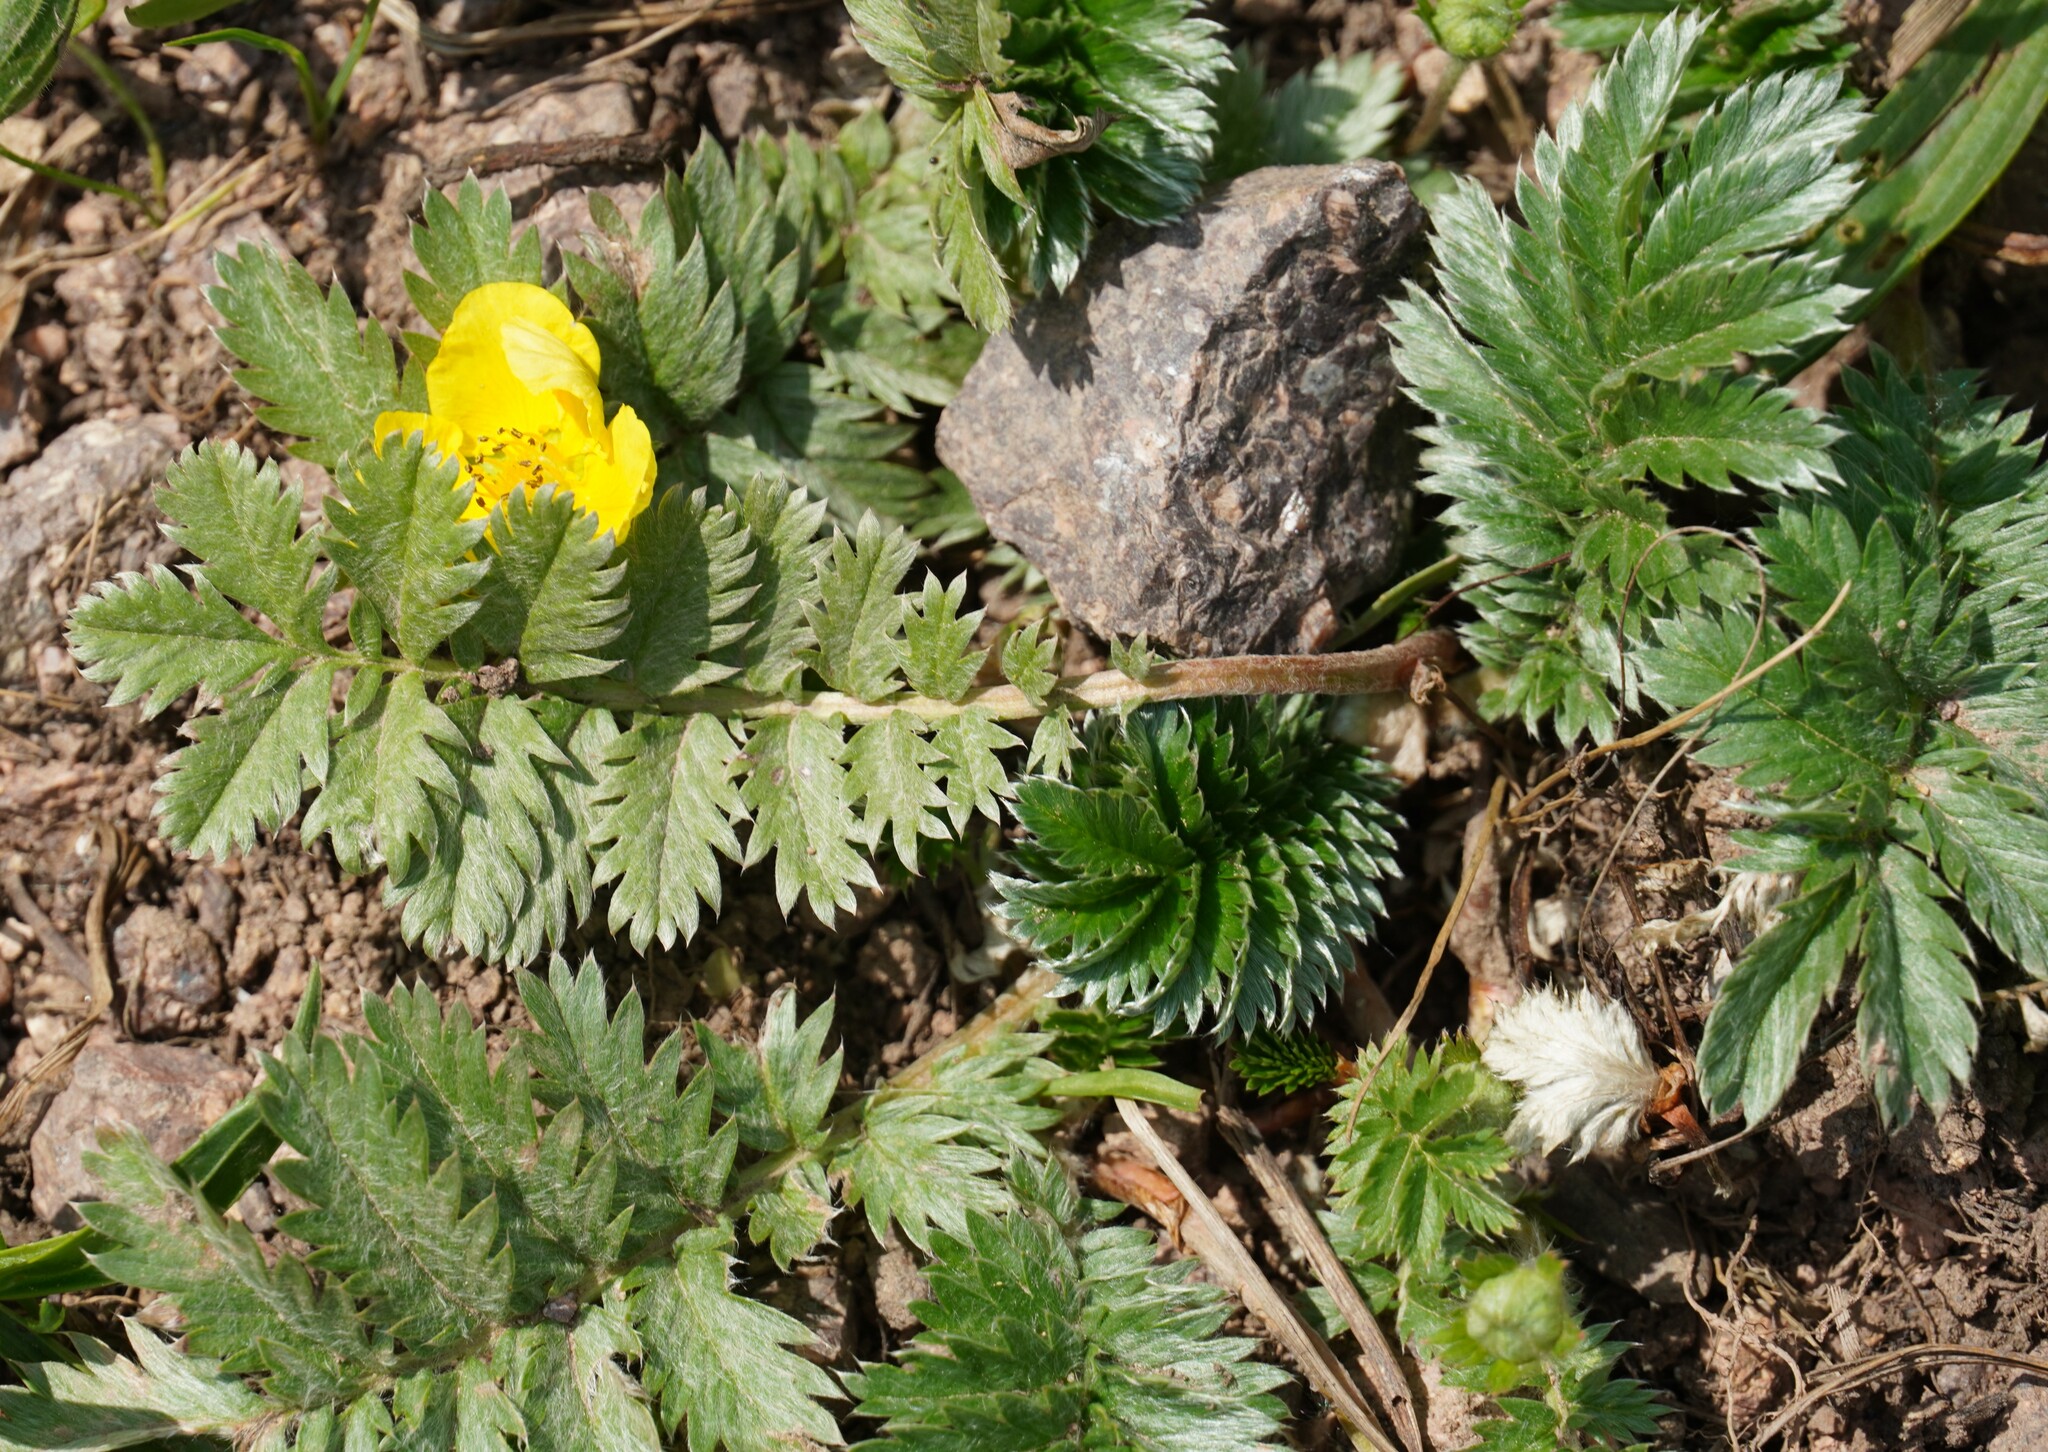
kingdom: Plantae
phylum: Tracheophyta
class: Magnoliopsida
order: Rosales
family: Rosaceae
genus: Argentina
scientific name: Argentina anserina
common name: Common silverweed
